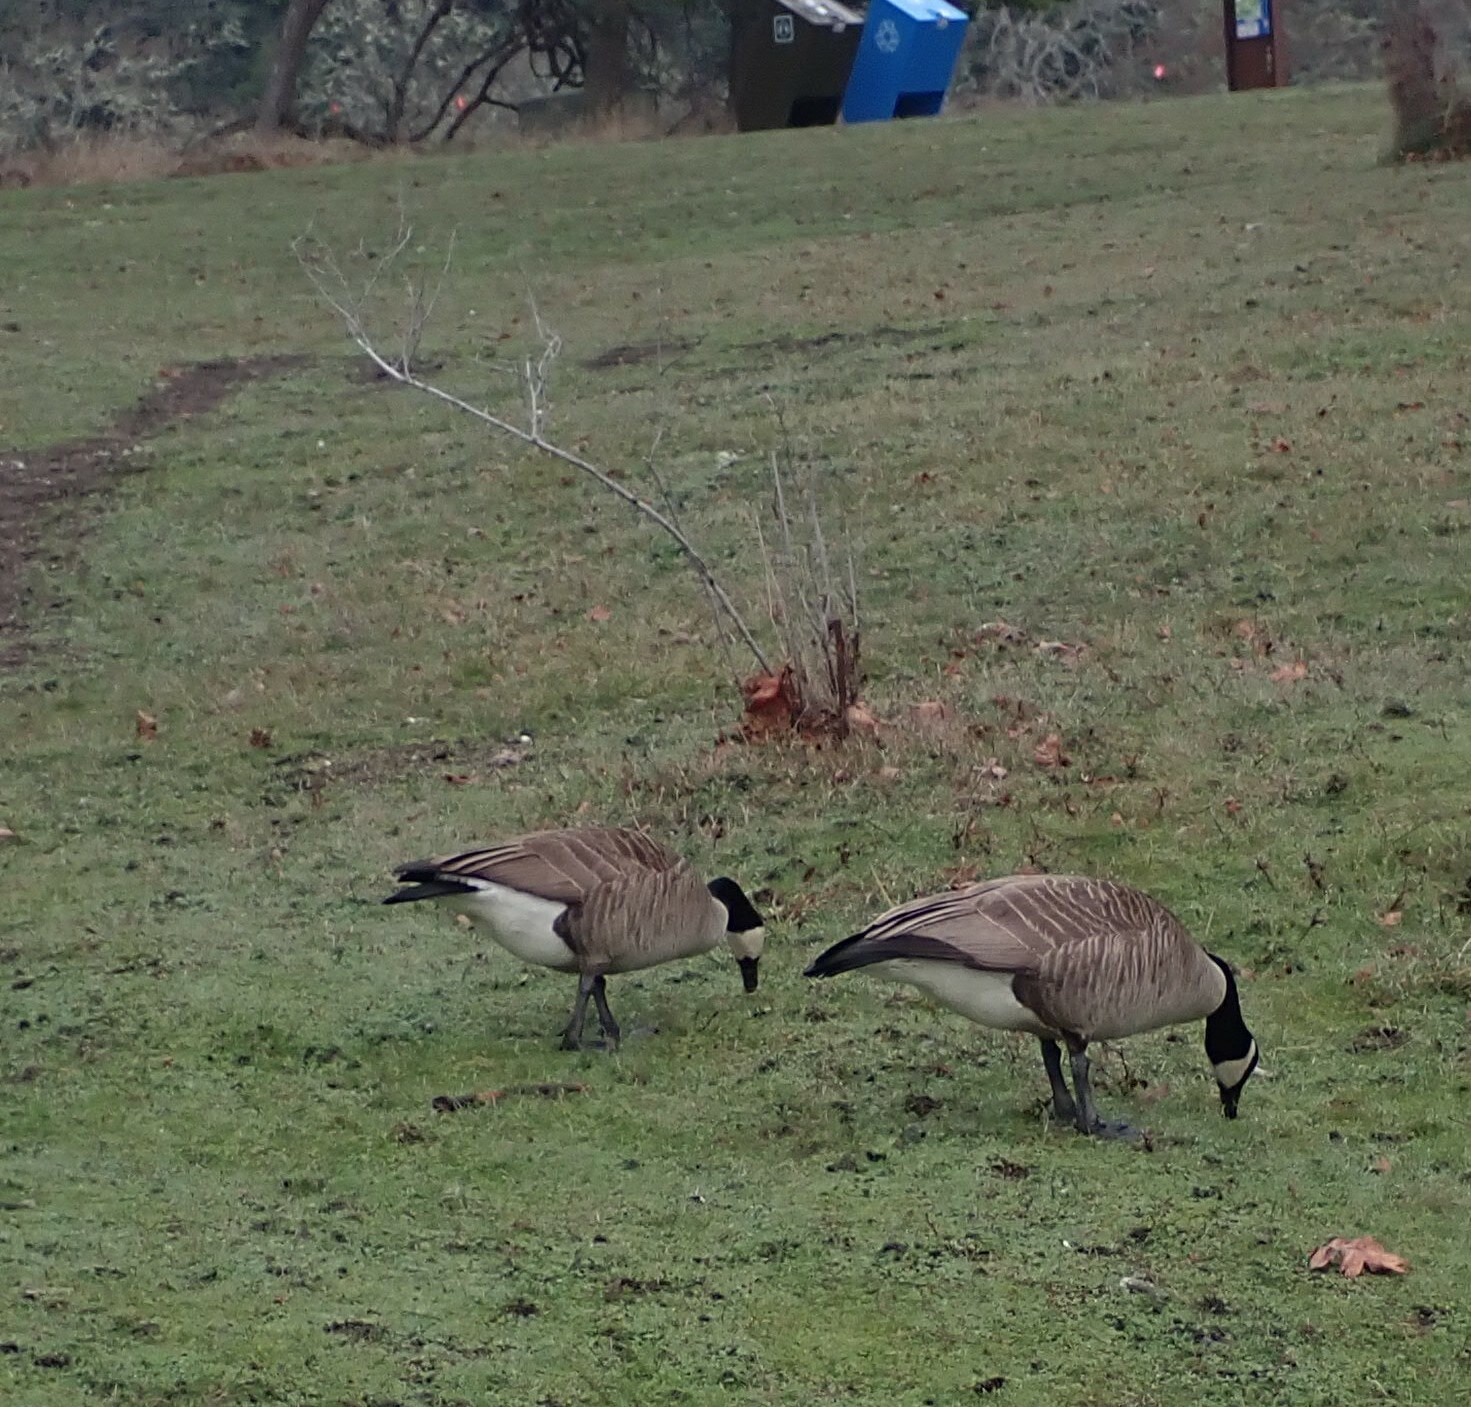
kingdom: Animalia
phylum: Chordata
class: Aves
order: Anseriformes
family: Anatidae
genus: Branta
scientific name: Branta canadensis
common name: Canada goose
